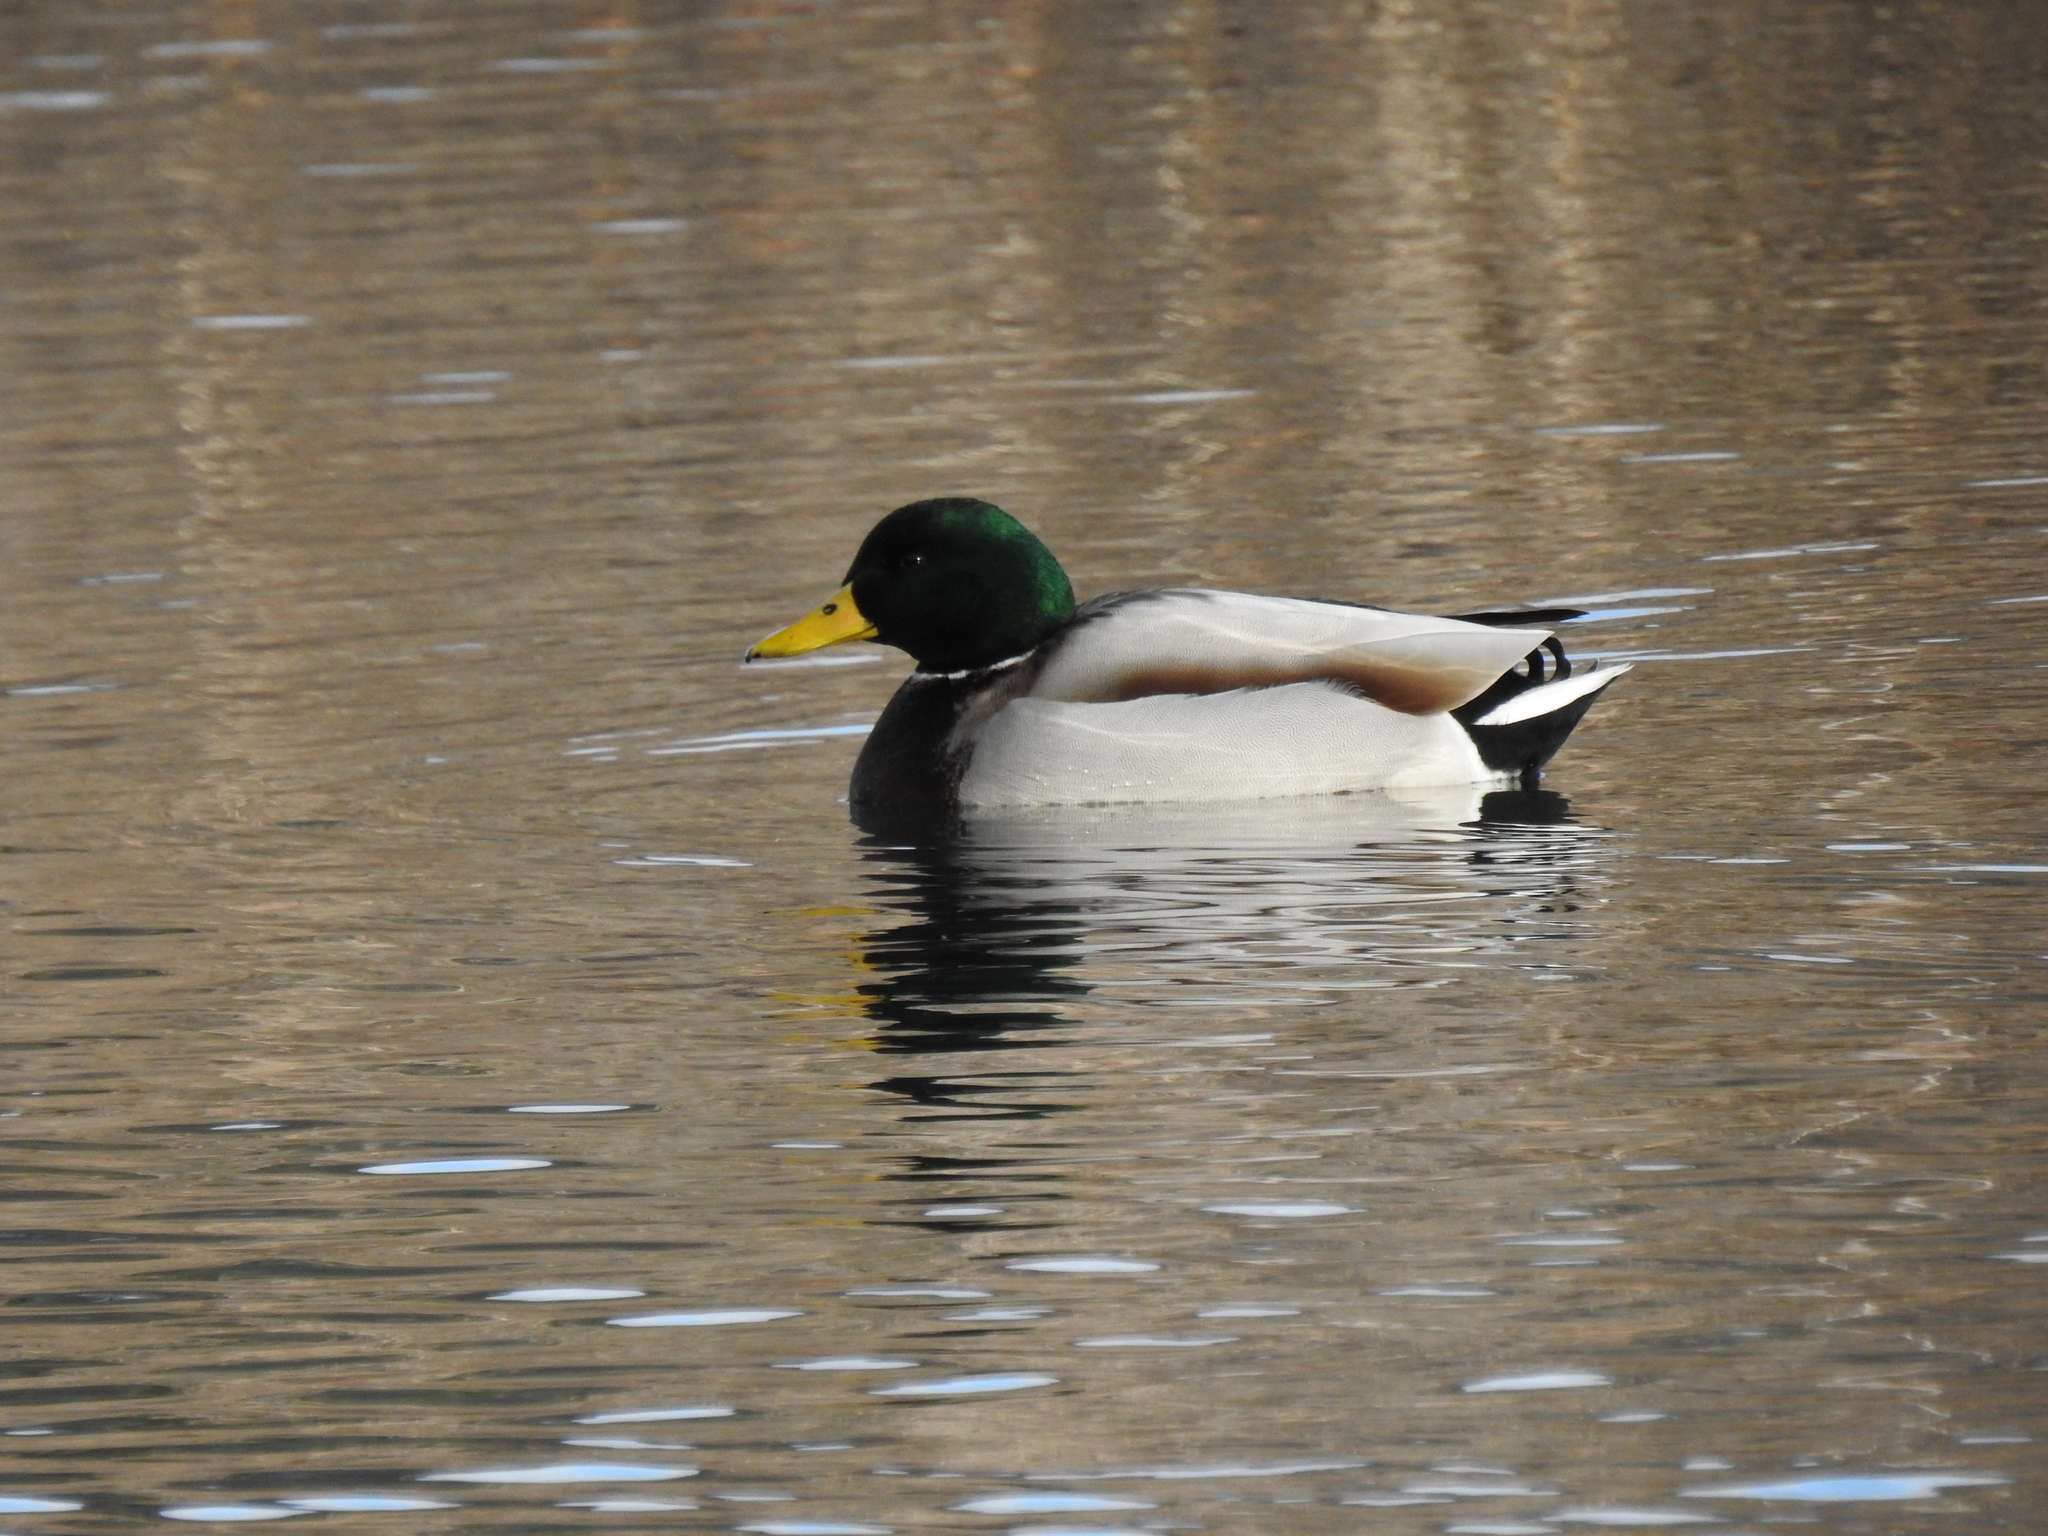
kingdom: Animalia
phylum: Chordata
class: Aves
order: Anseriformes
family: Anatidae
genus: Anas
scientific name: Anas platyrhynchos
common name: Mallard
